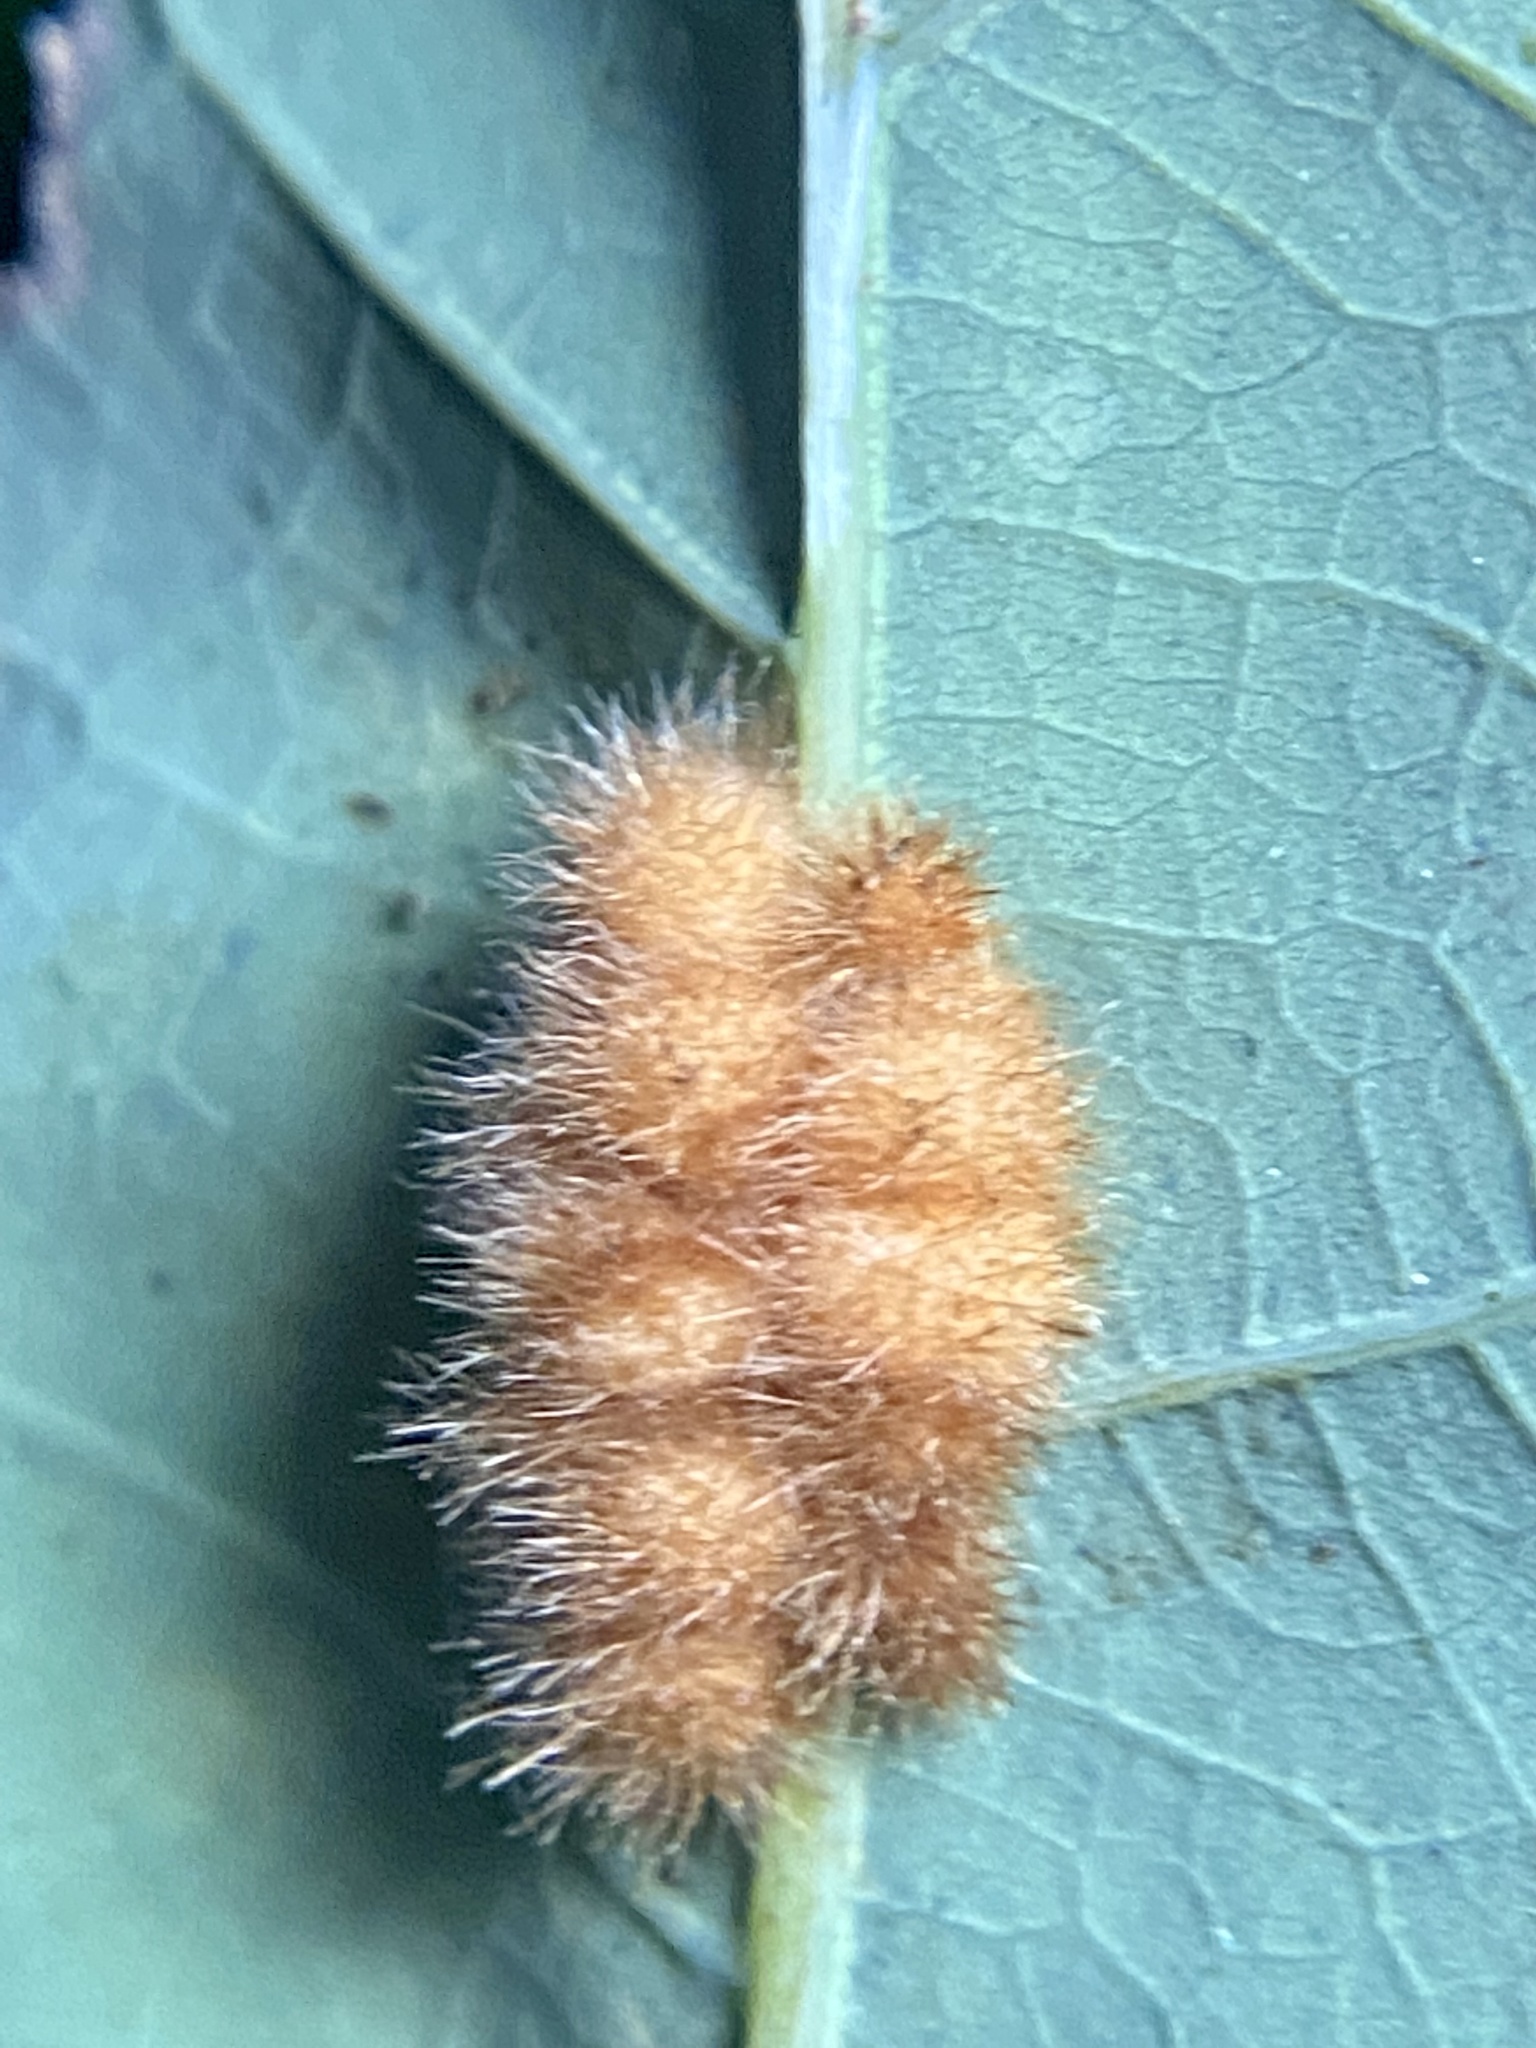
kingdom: Animalia
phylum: Arthropoda
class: Insecta
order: Hymenoptera
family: Cynipidae
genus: Andricus
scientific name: Andricus
